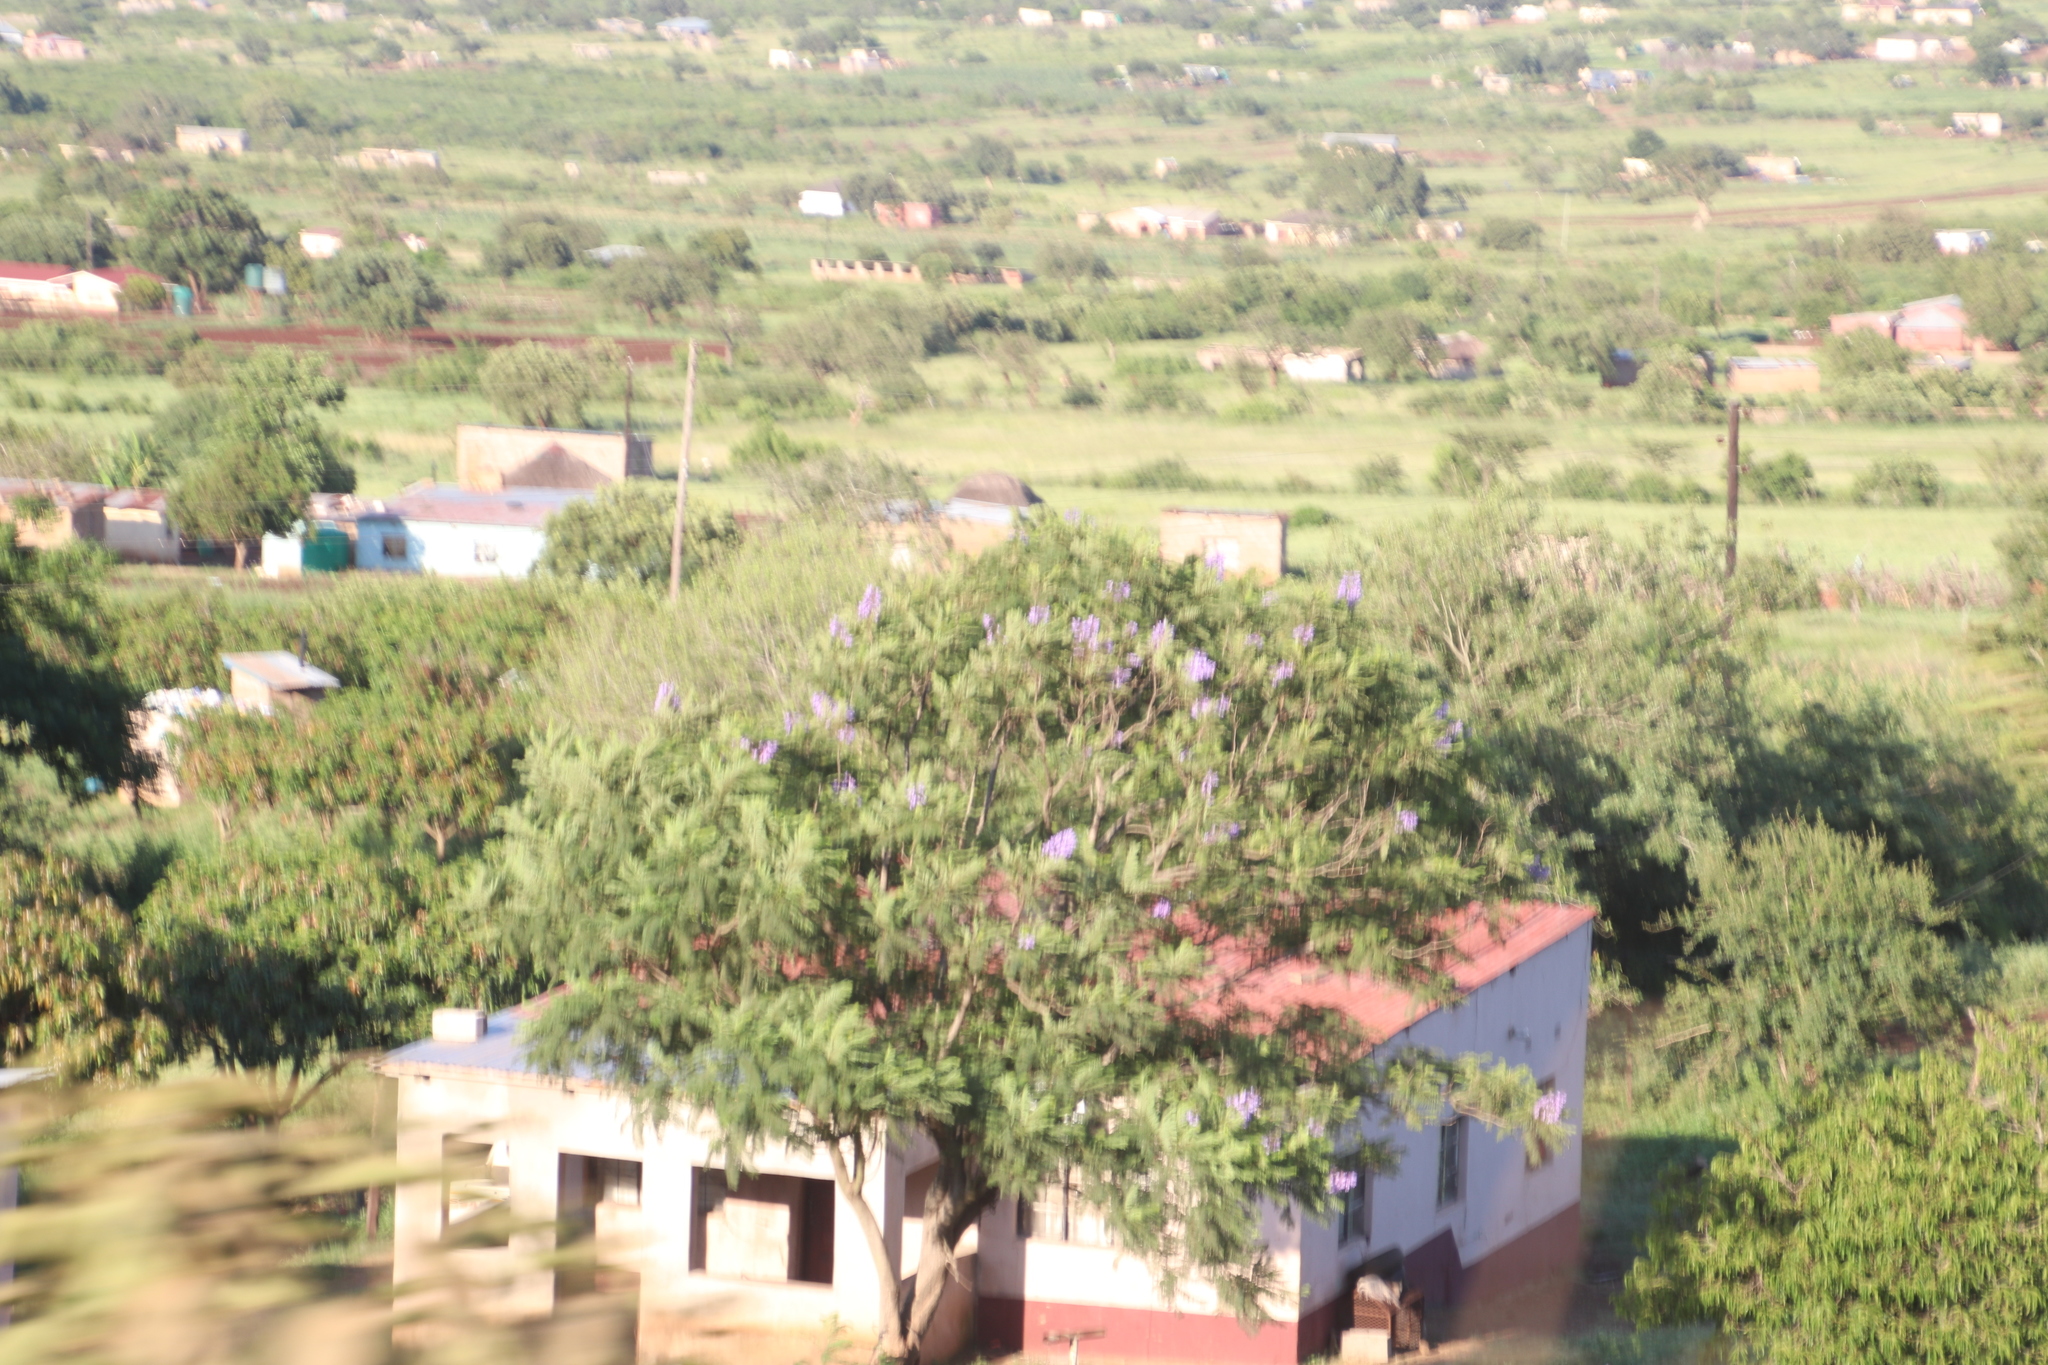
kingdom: Plantae
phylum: Tracheophyta
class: Magnoliopsida
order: Lamiales
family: Bignoniaceae
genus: Jacaranda
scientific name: Jacaranda mimosifolia
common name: Black poui
